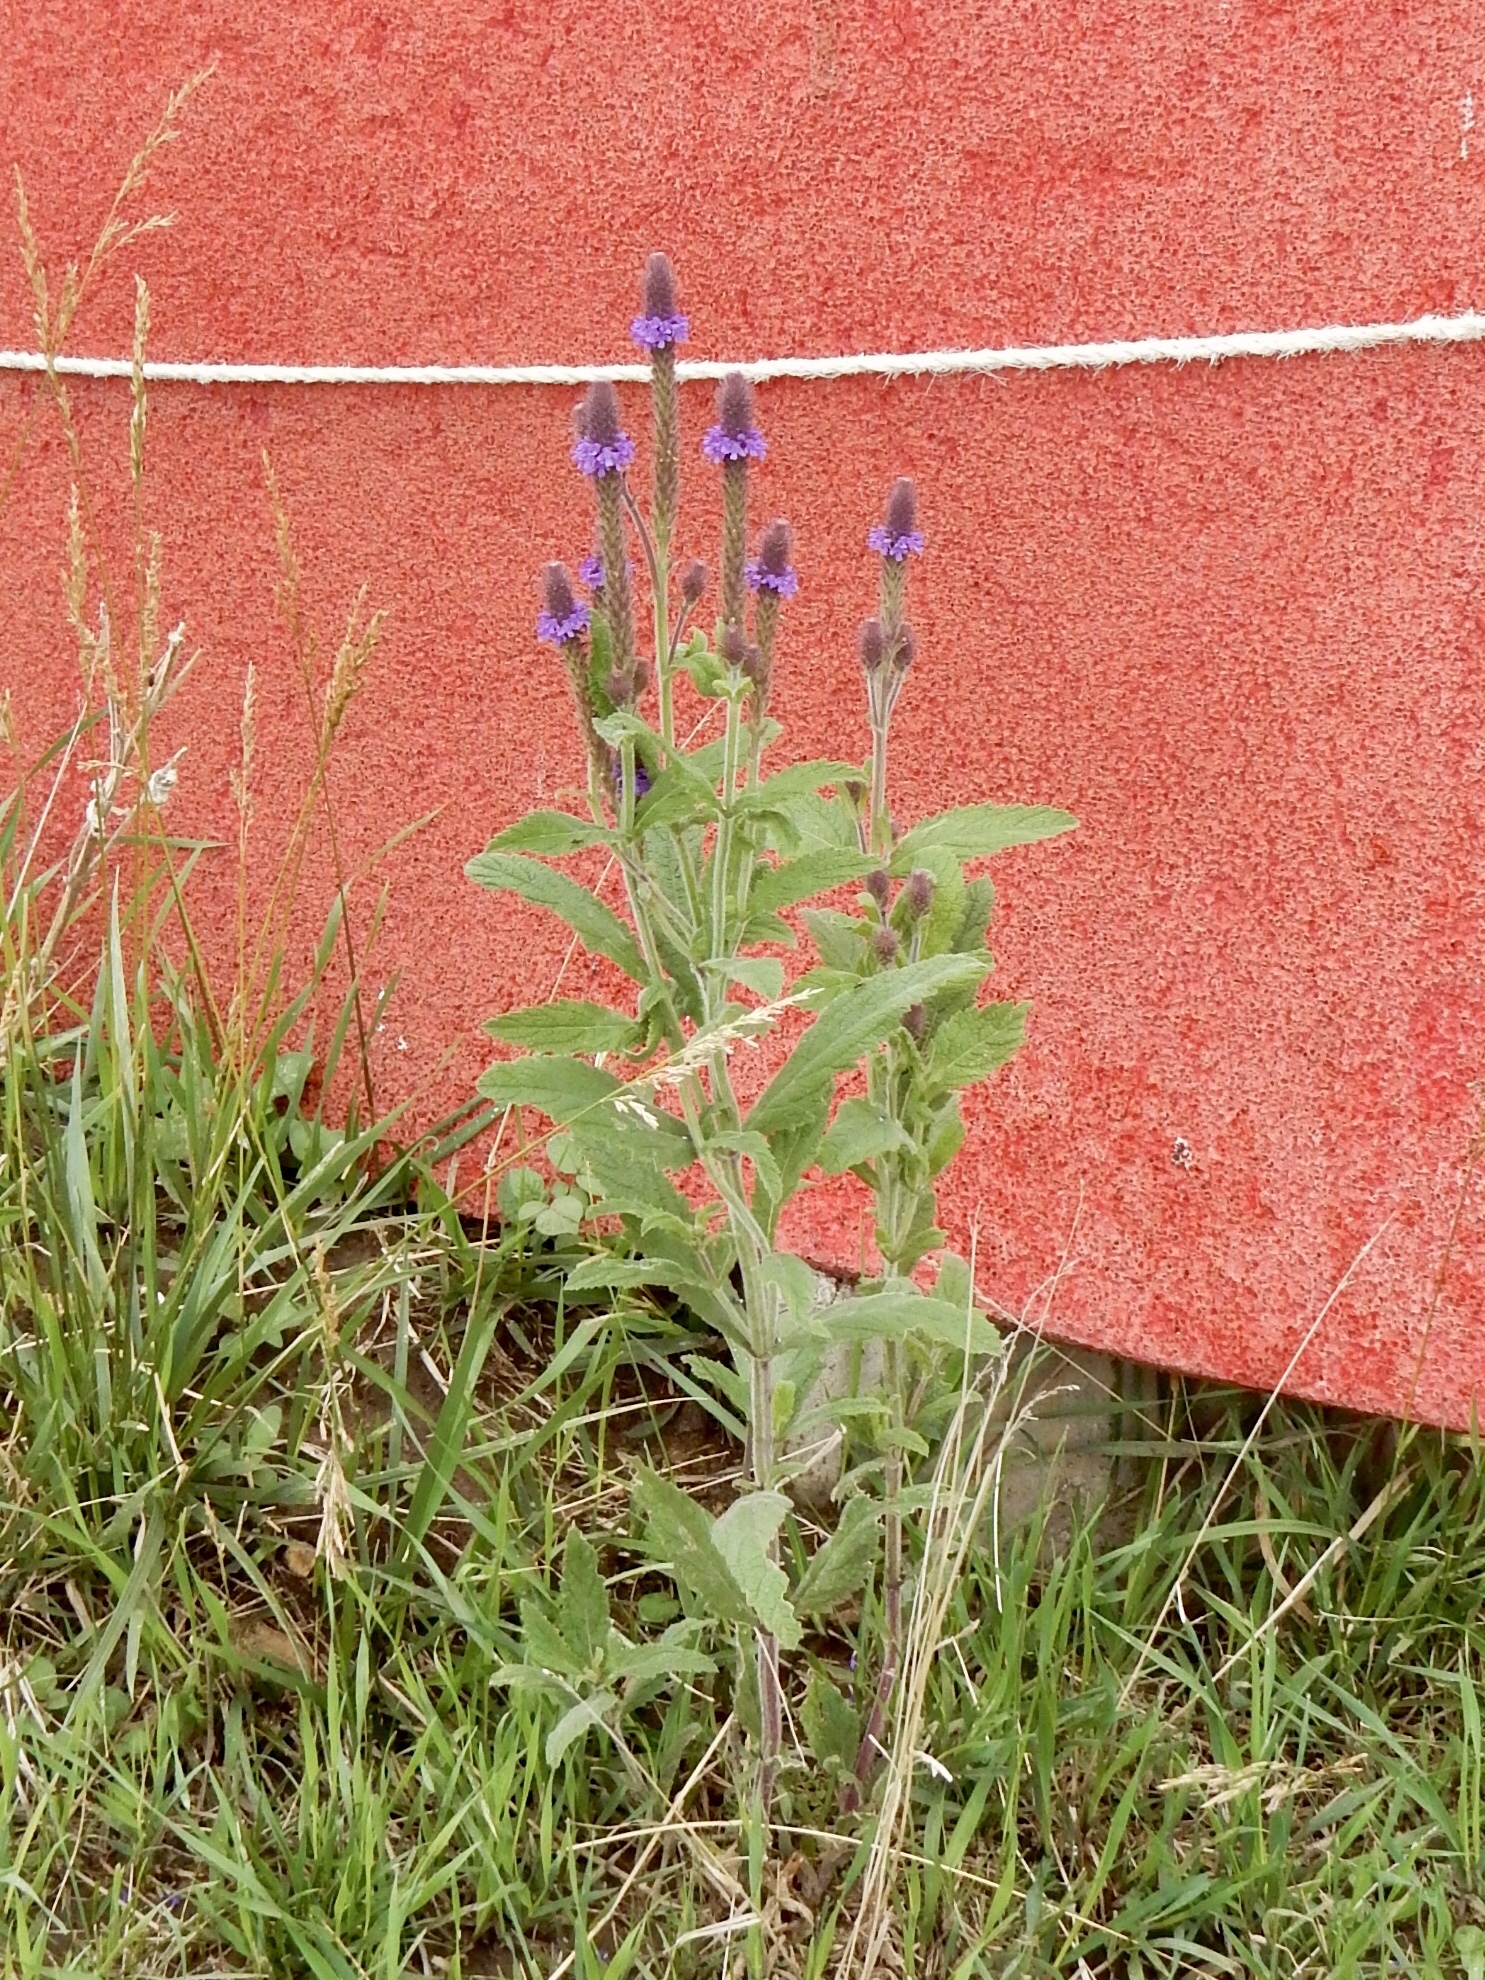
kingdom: Plantae
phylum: Tracheophyta
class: Magnoliopsida
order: Lamiales
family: Verbenaceae
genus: Verbena
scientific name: Verbena macdougalii
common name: New mexico vervain
